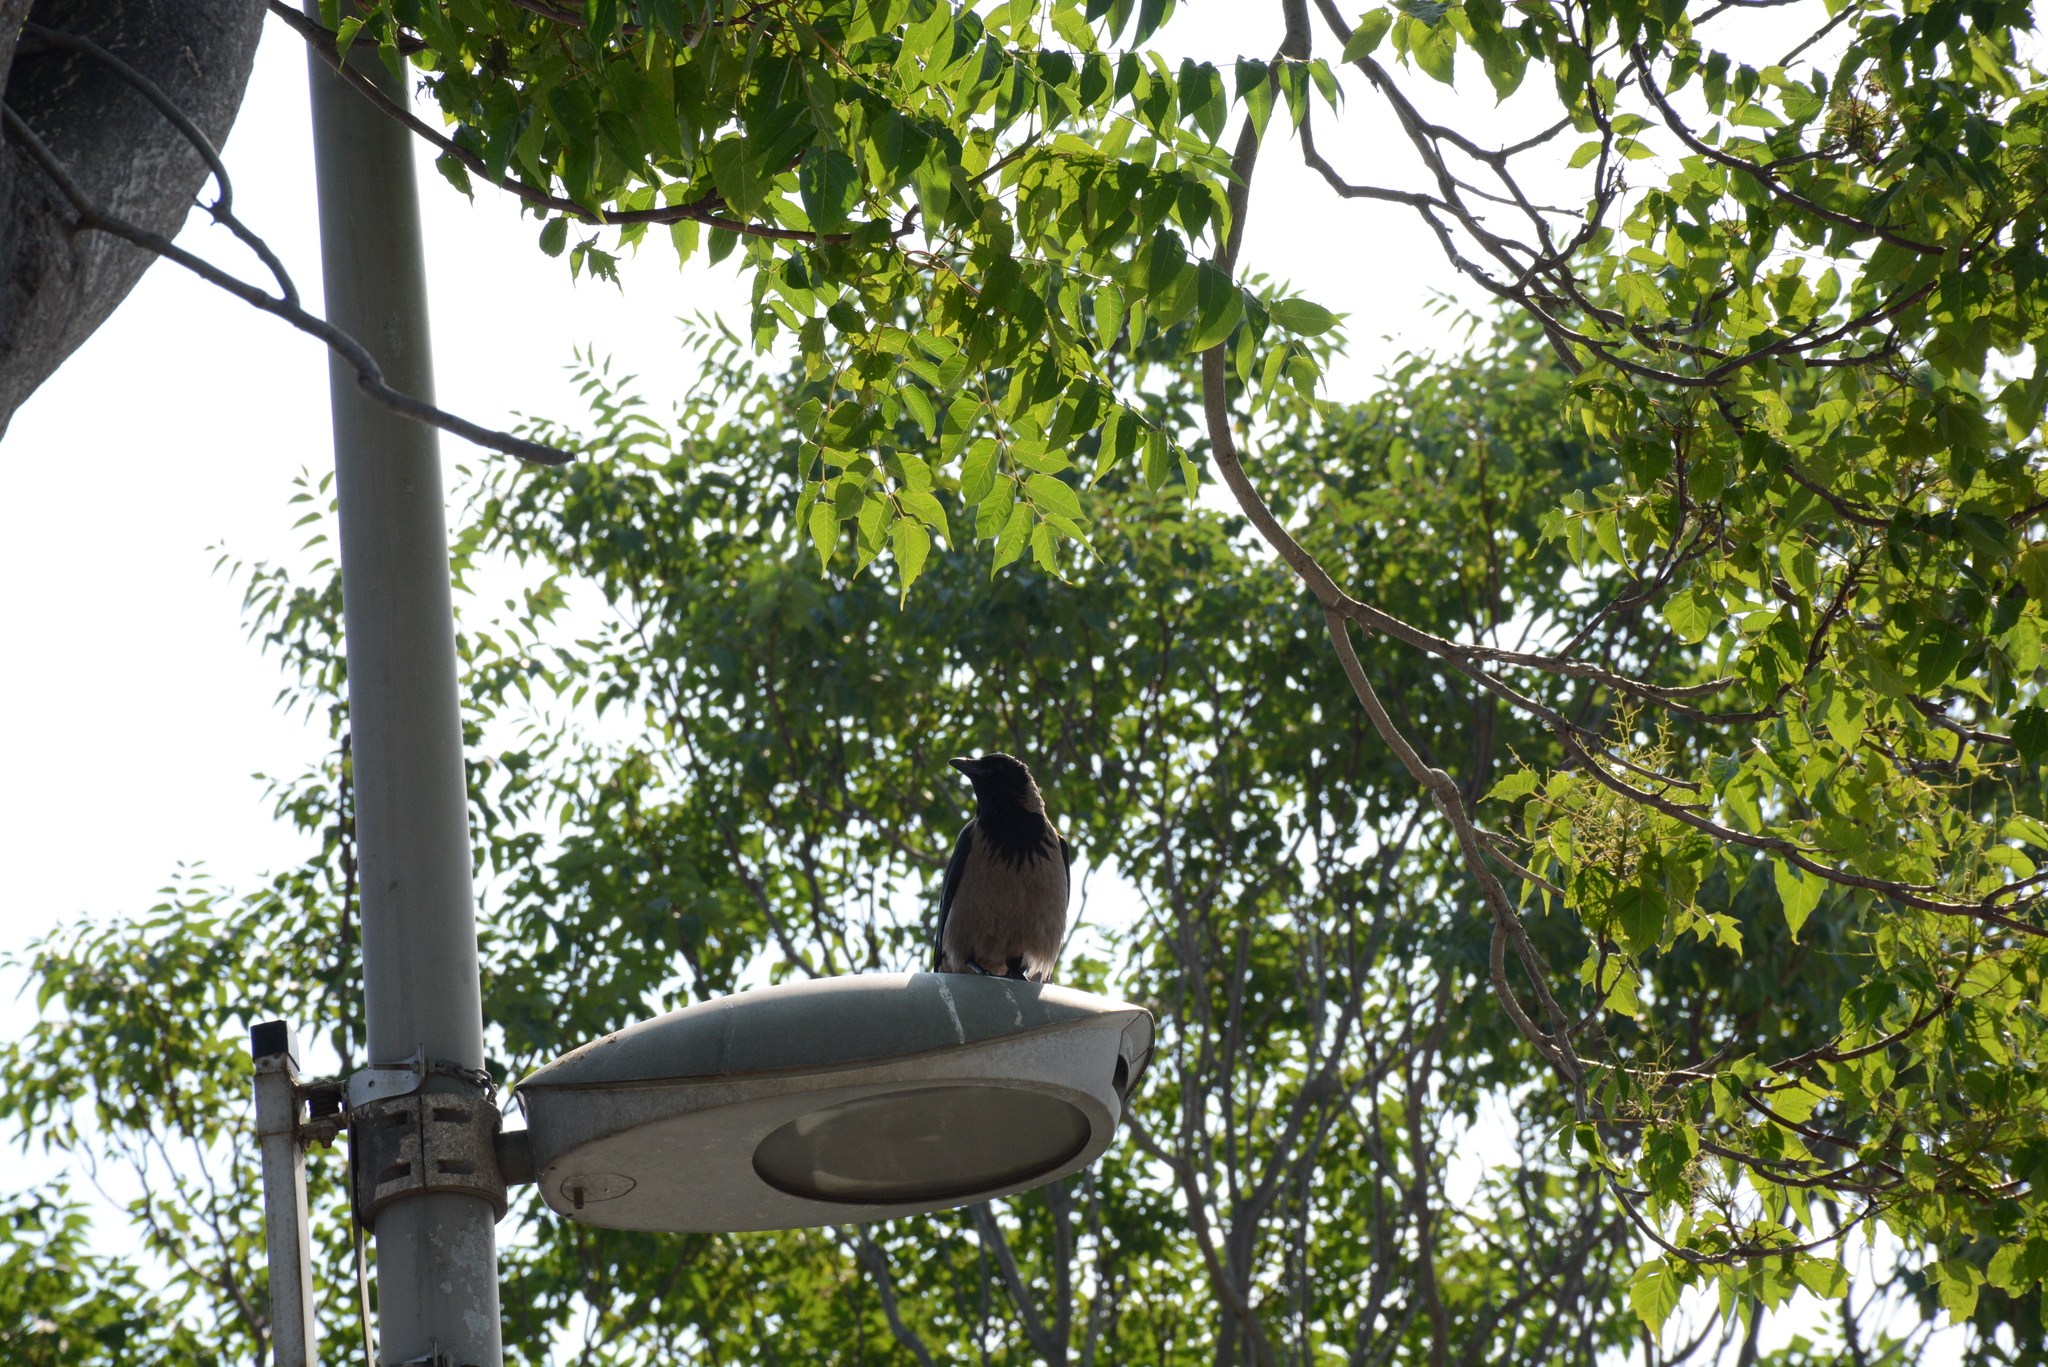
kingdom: Animalia
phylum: Chordata
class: Aves
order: Passeriformes
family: Corvidae
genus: Corvus
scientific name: Corvus cornix
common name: Hooded crow
